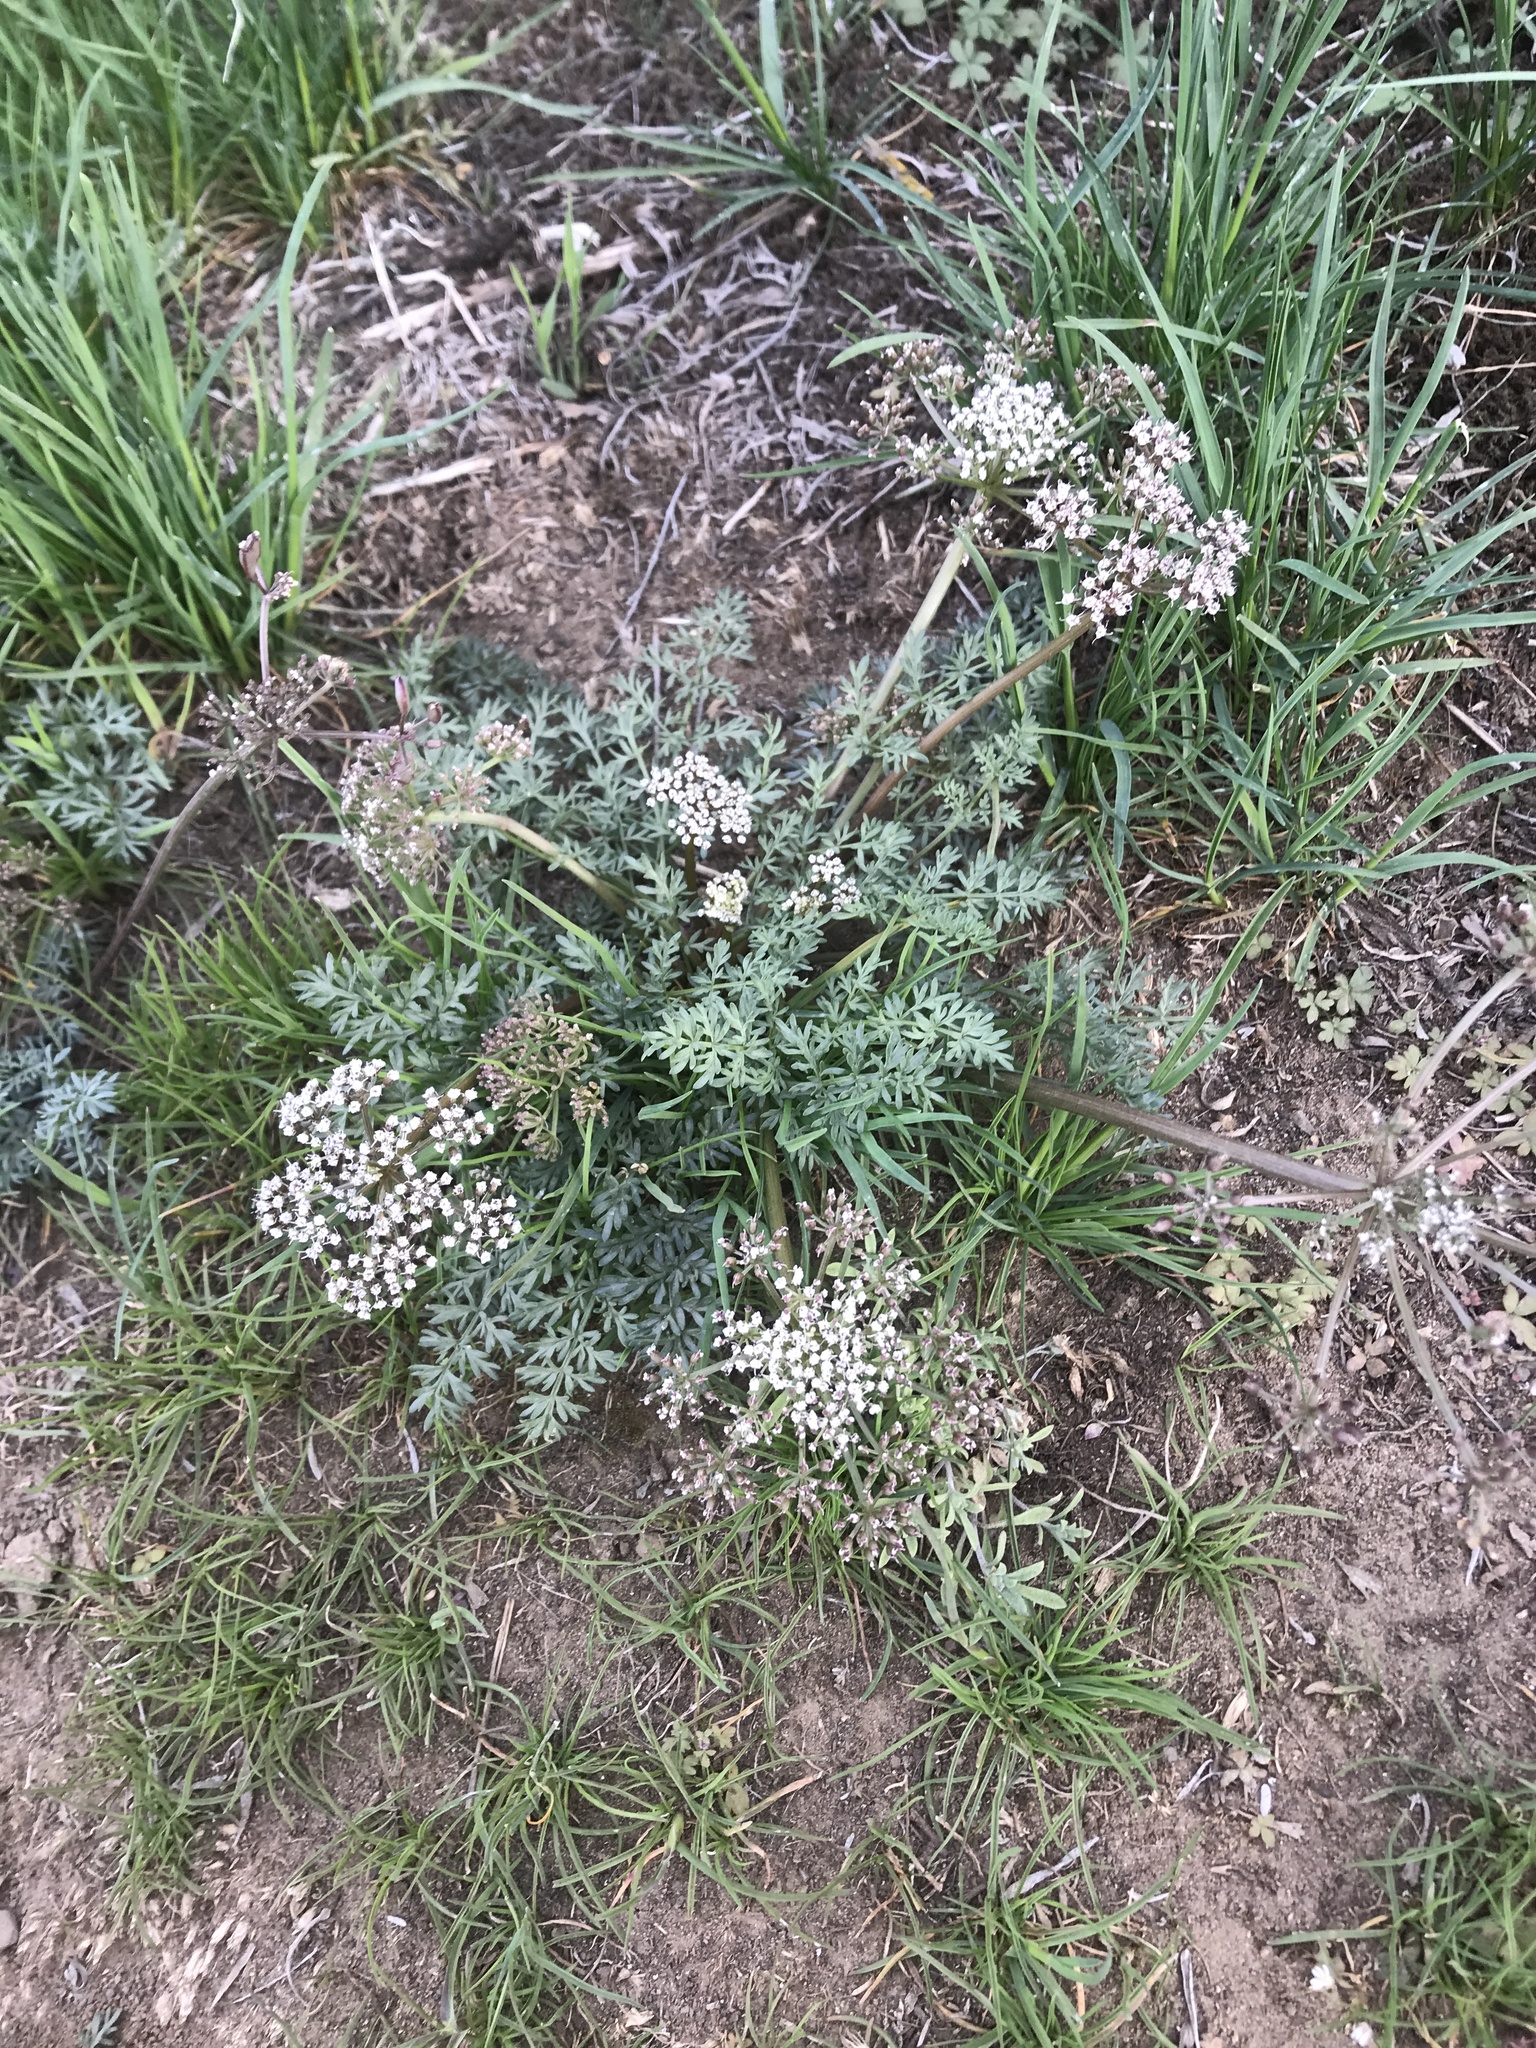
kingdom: Plantae
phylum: Tracheophyta
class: Magnoliopsida
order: Apiales
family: Apiaceae
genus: Lomatium
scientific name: Lomatium canbyi
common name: Chucklusa
